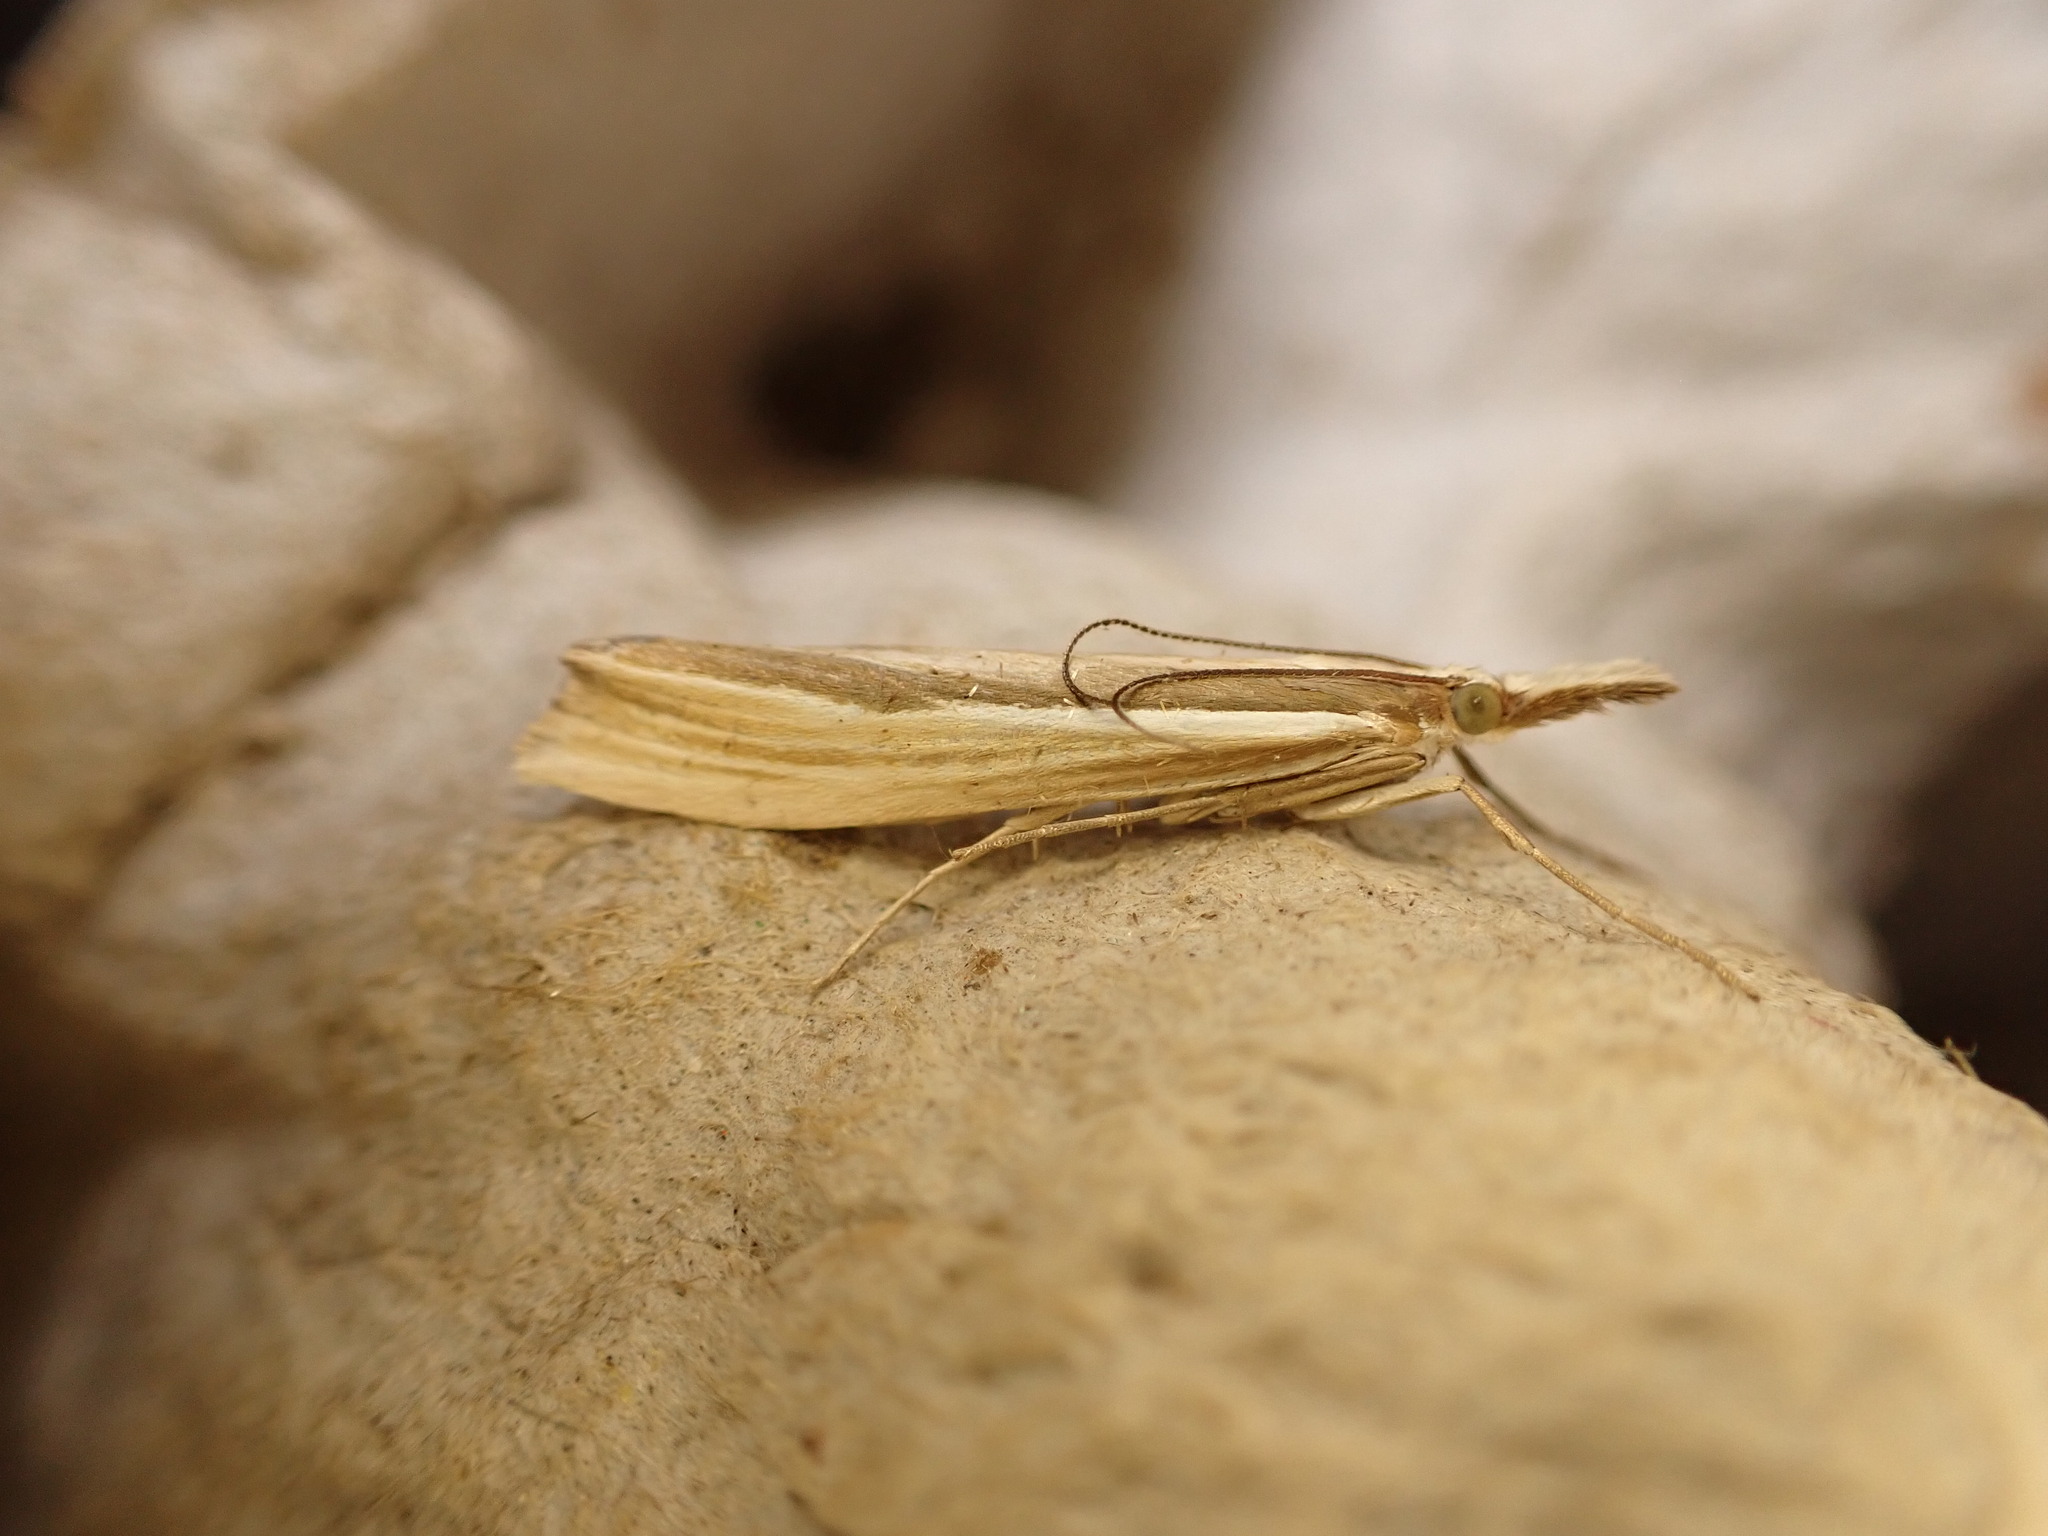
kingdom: Animalia
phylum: Arthropoda
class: Insecta
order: Lepidoptera
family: Crambidae
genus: Orocrambus
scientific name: Orocrambus ramosellus
